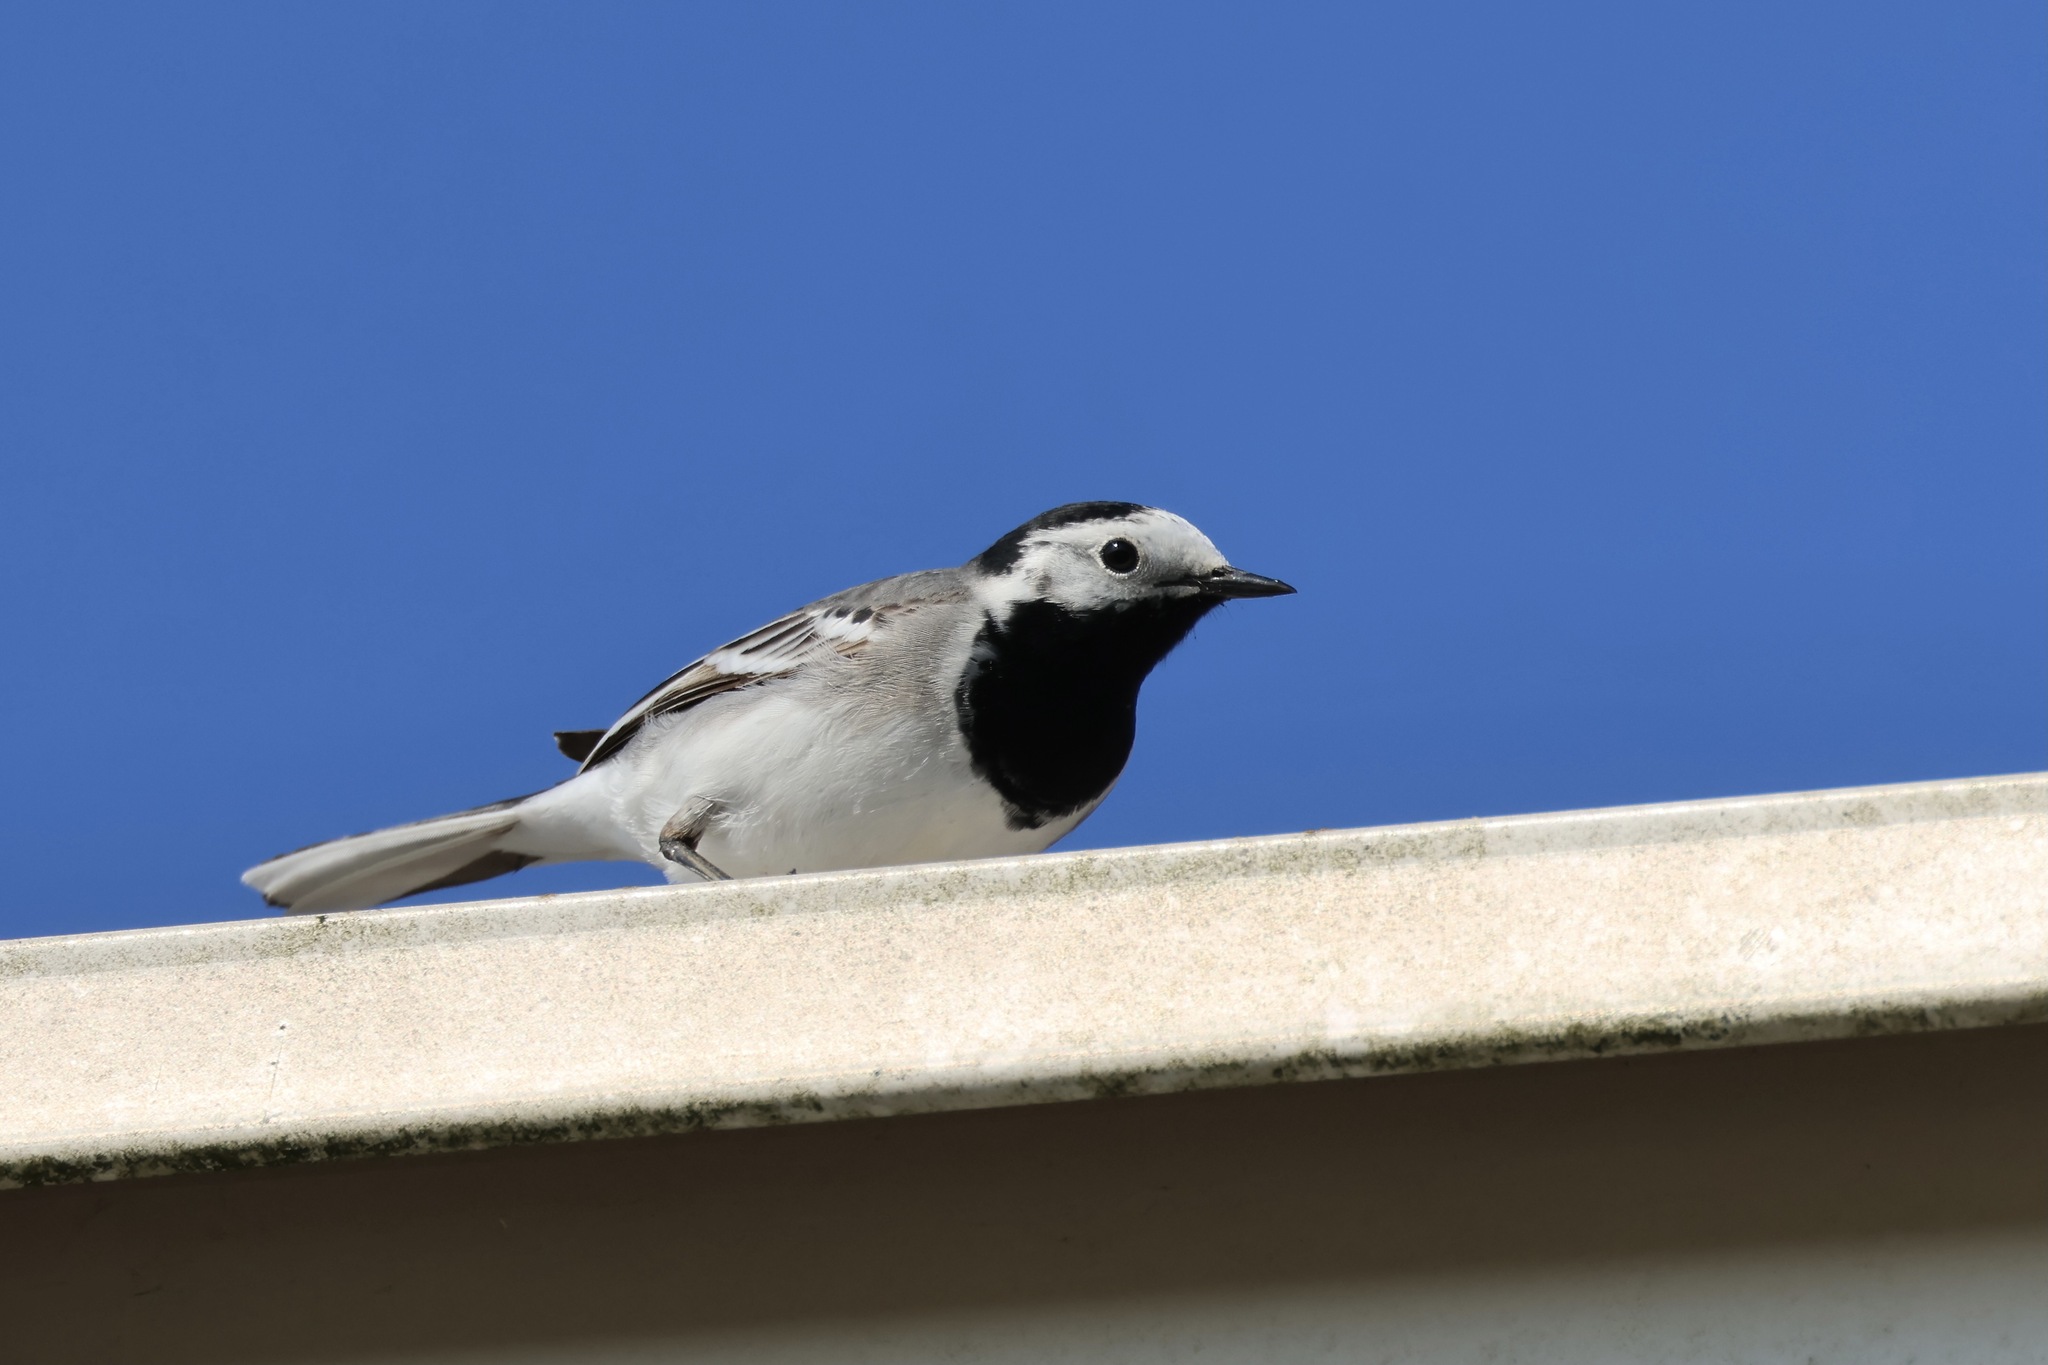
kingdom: Animalia
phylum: Chordata
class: Aves
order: Passeriformes
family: Motacillidae
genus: Motacilla
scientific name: Motacilla alba
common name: White wagtail
